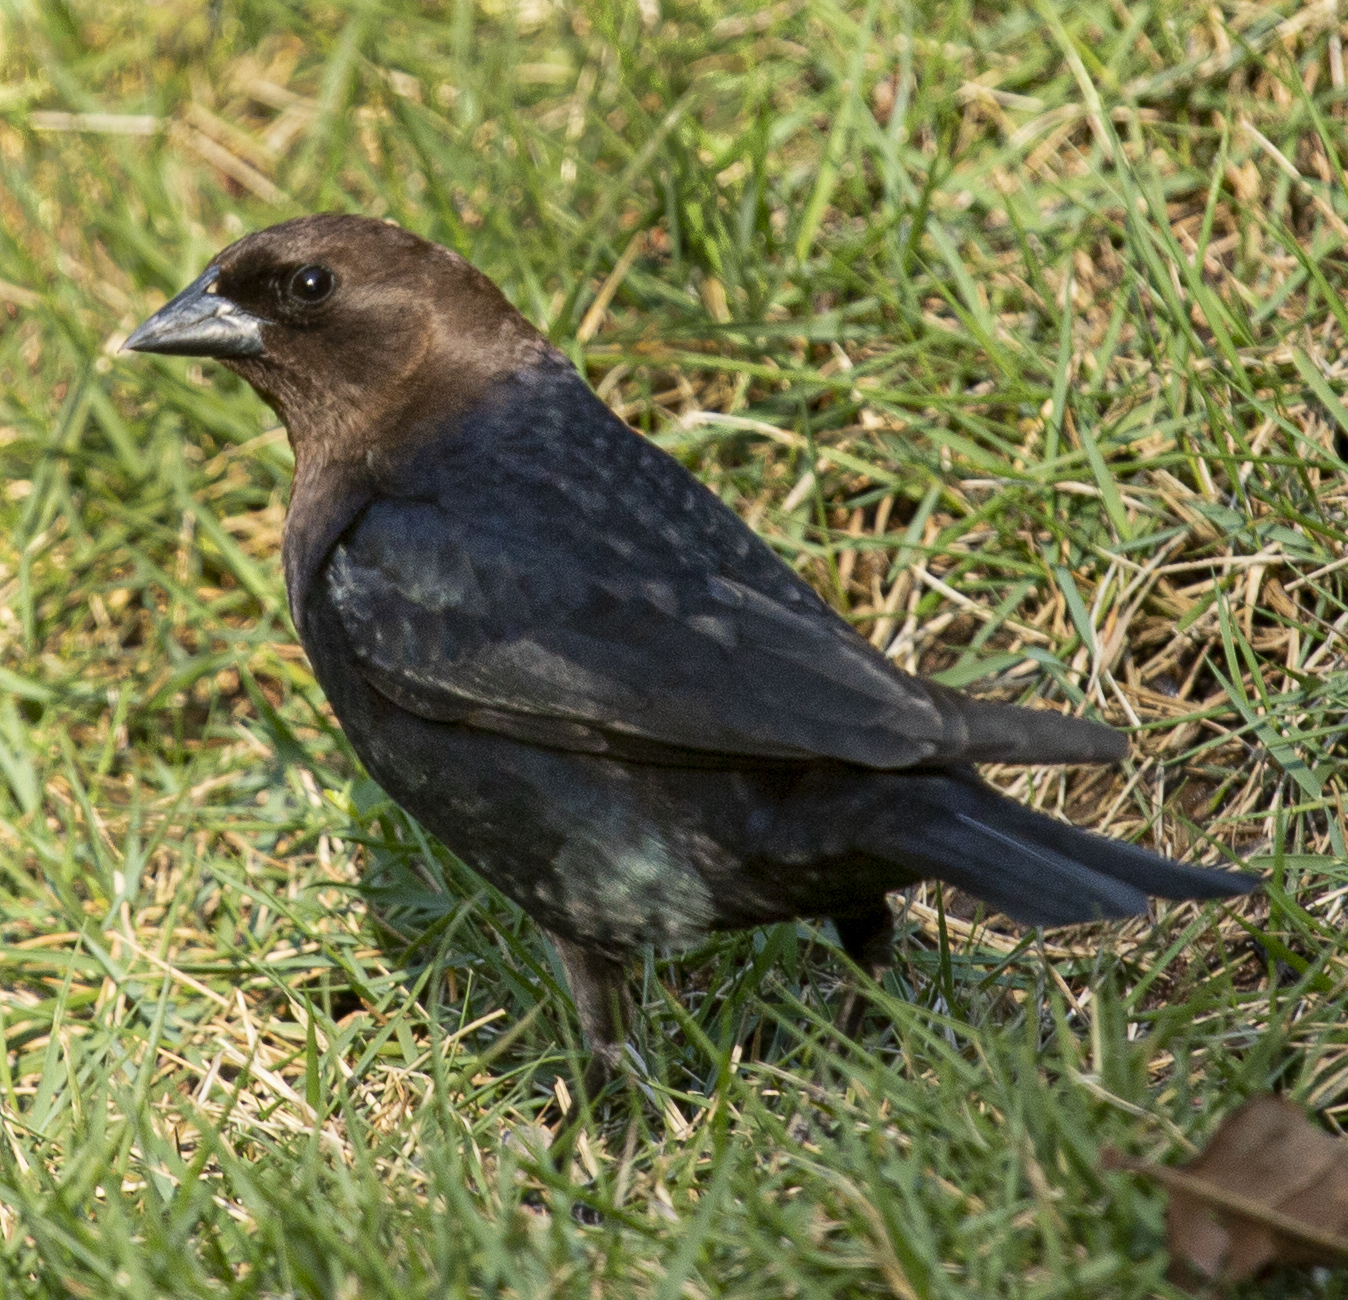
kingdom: Animalia
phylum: Chordata
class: Aves
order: Passeriformes
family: Icteridae
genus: Molothrus
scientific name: Molothrus ater
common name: Brown-headed cowbird
